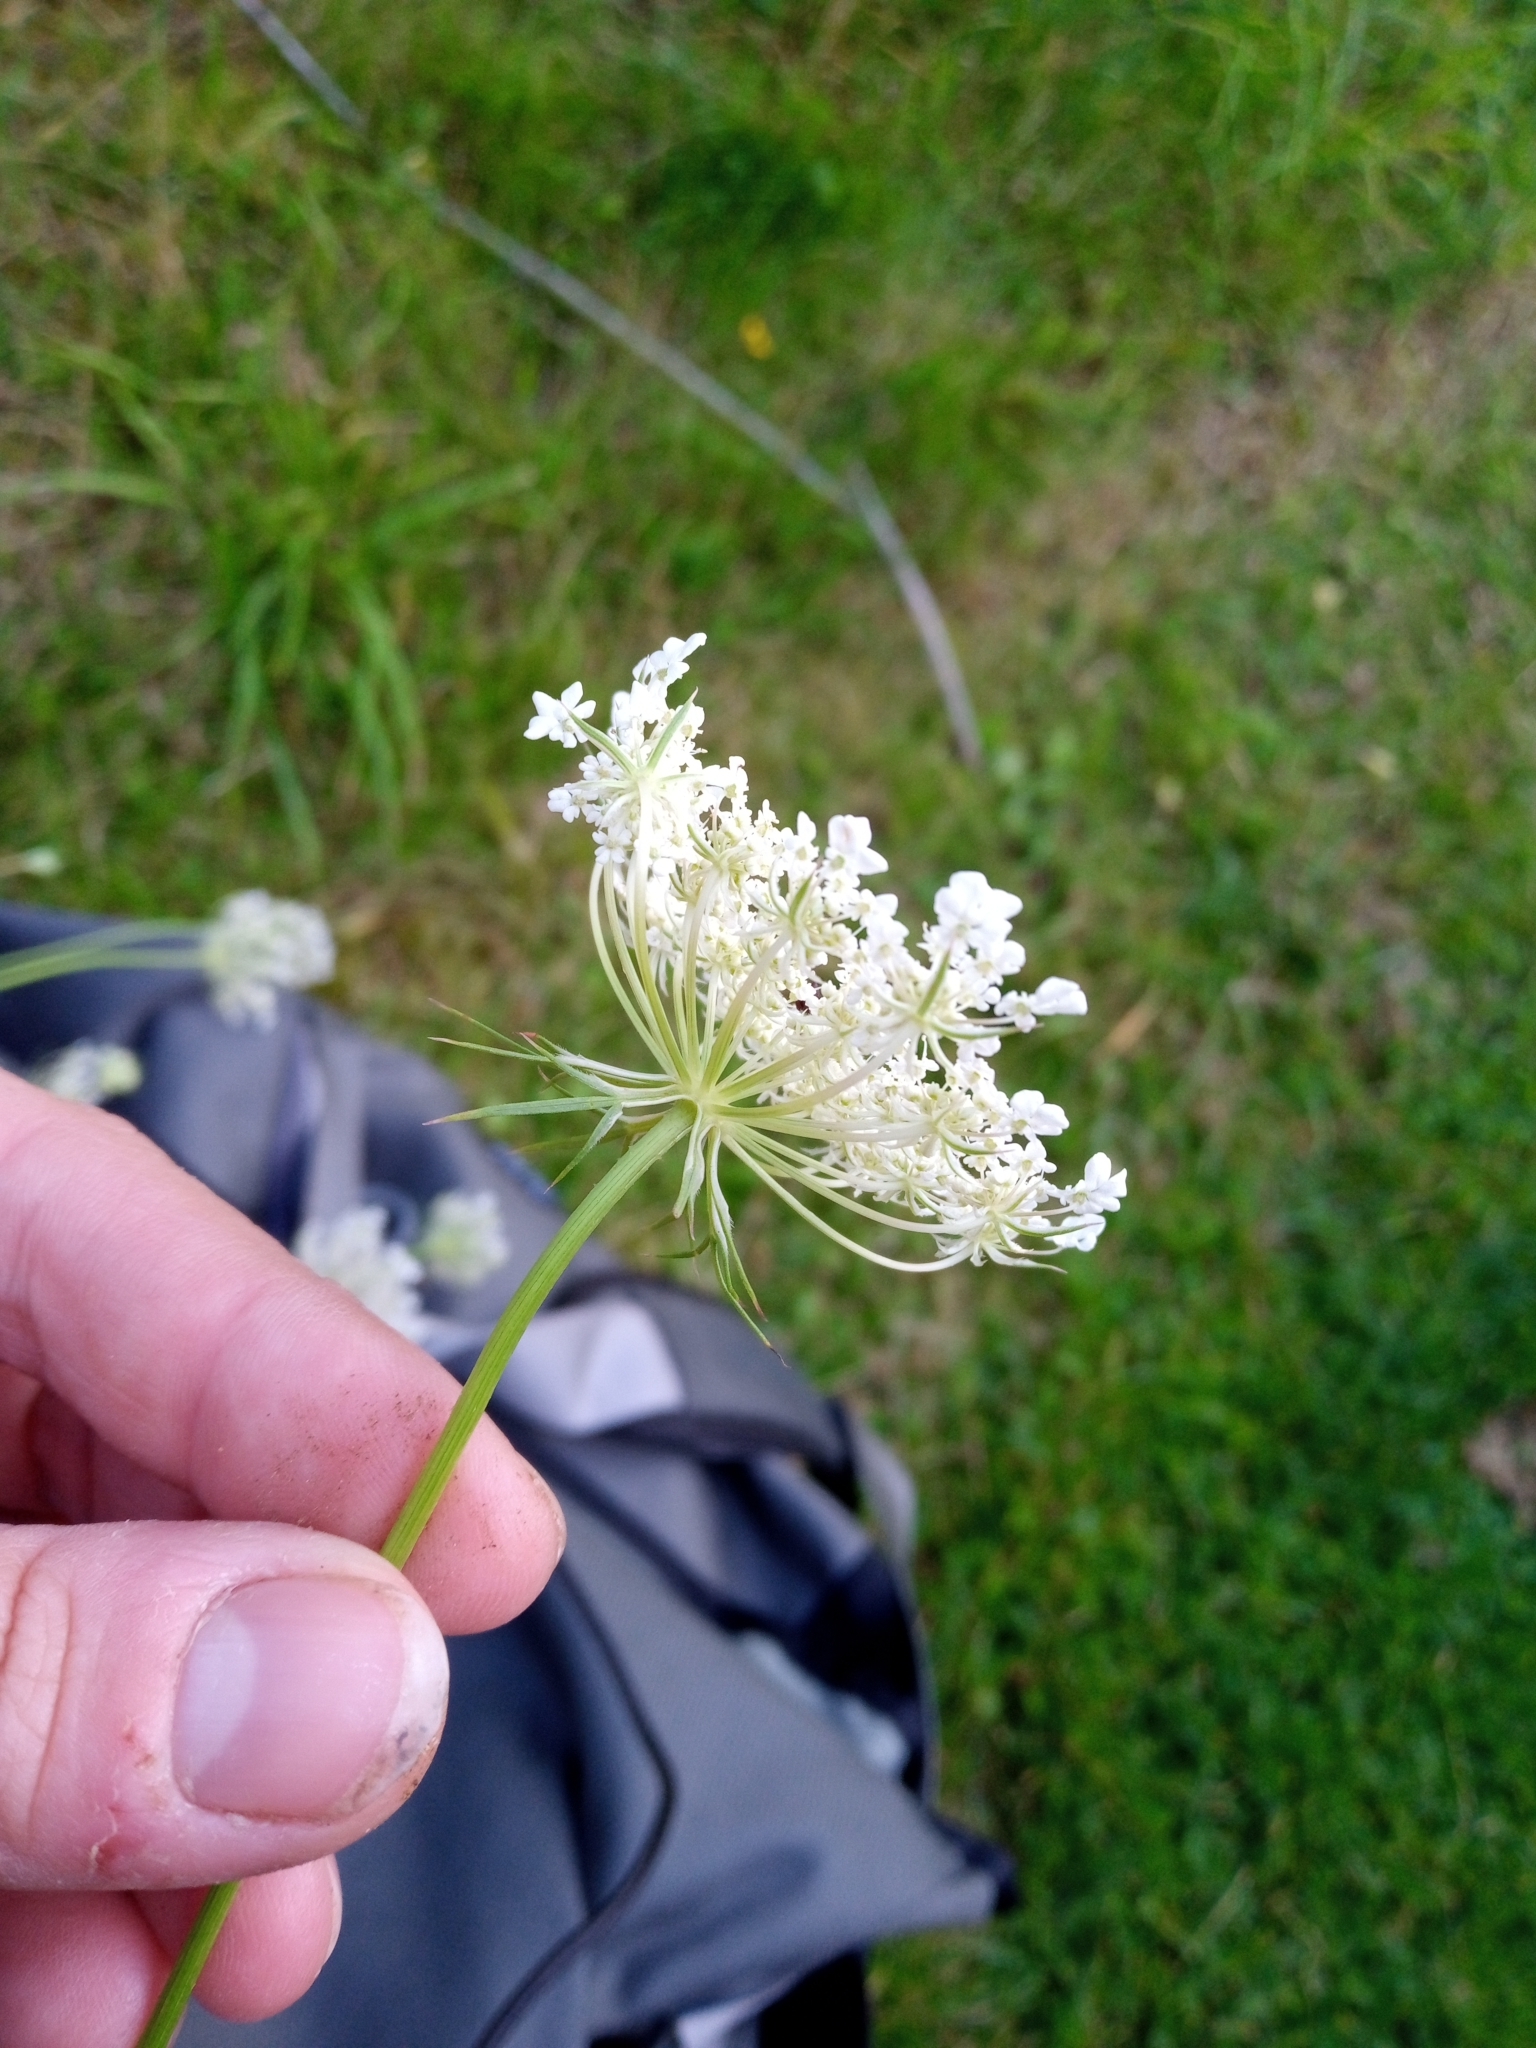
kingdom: Plantae
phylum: Tracheophyta
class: Magnoliopsida
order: Apiales
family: Apiaceae
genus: Daucus
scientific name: Daucus carota
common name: Wild carrot
